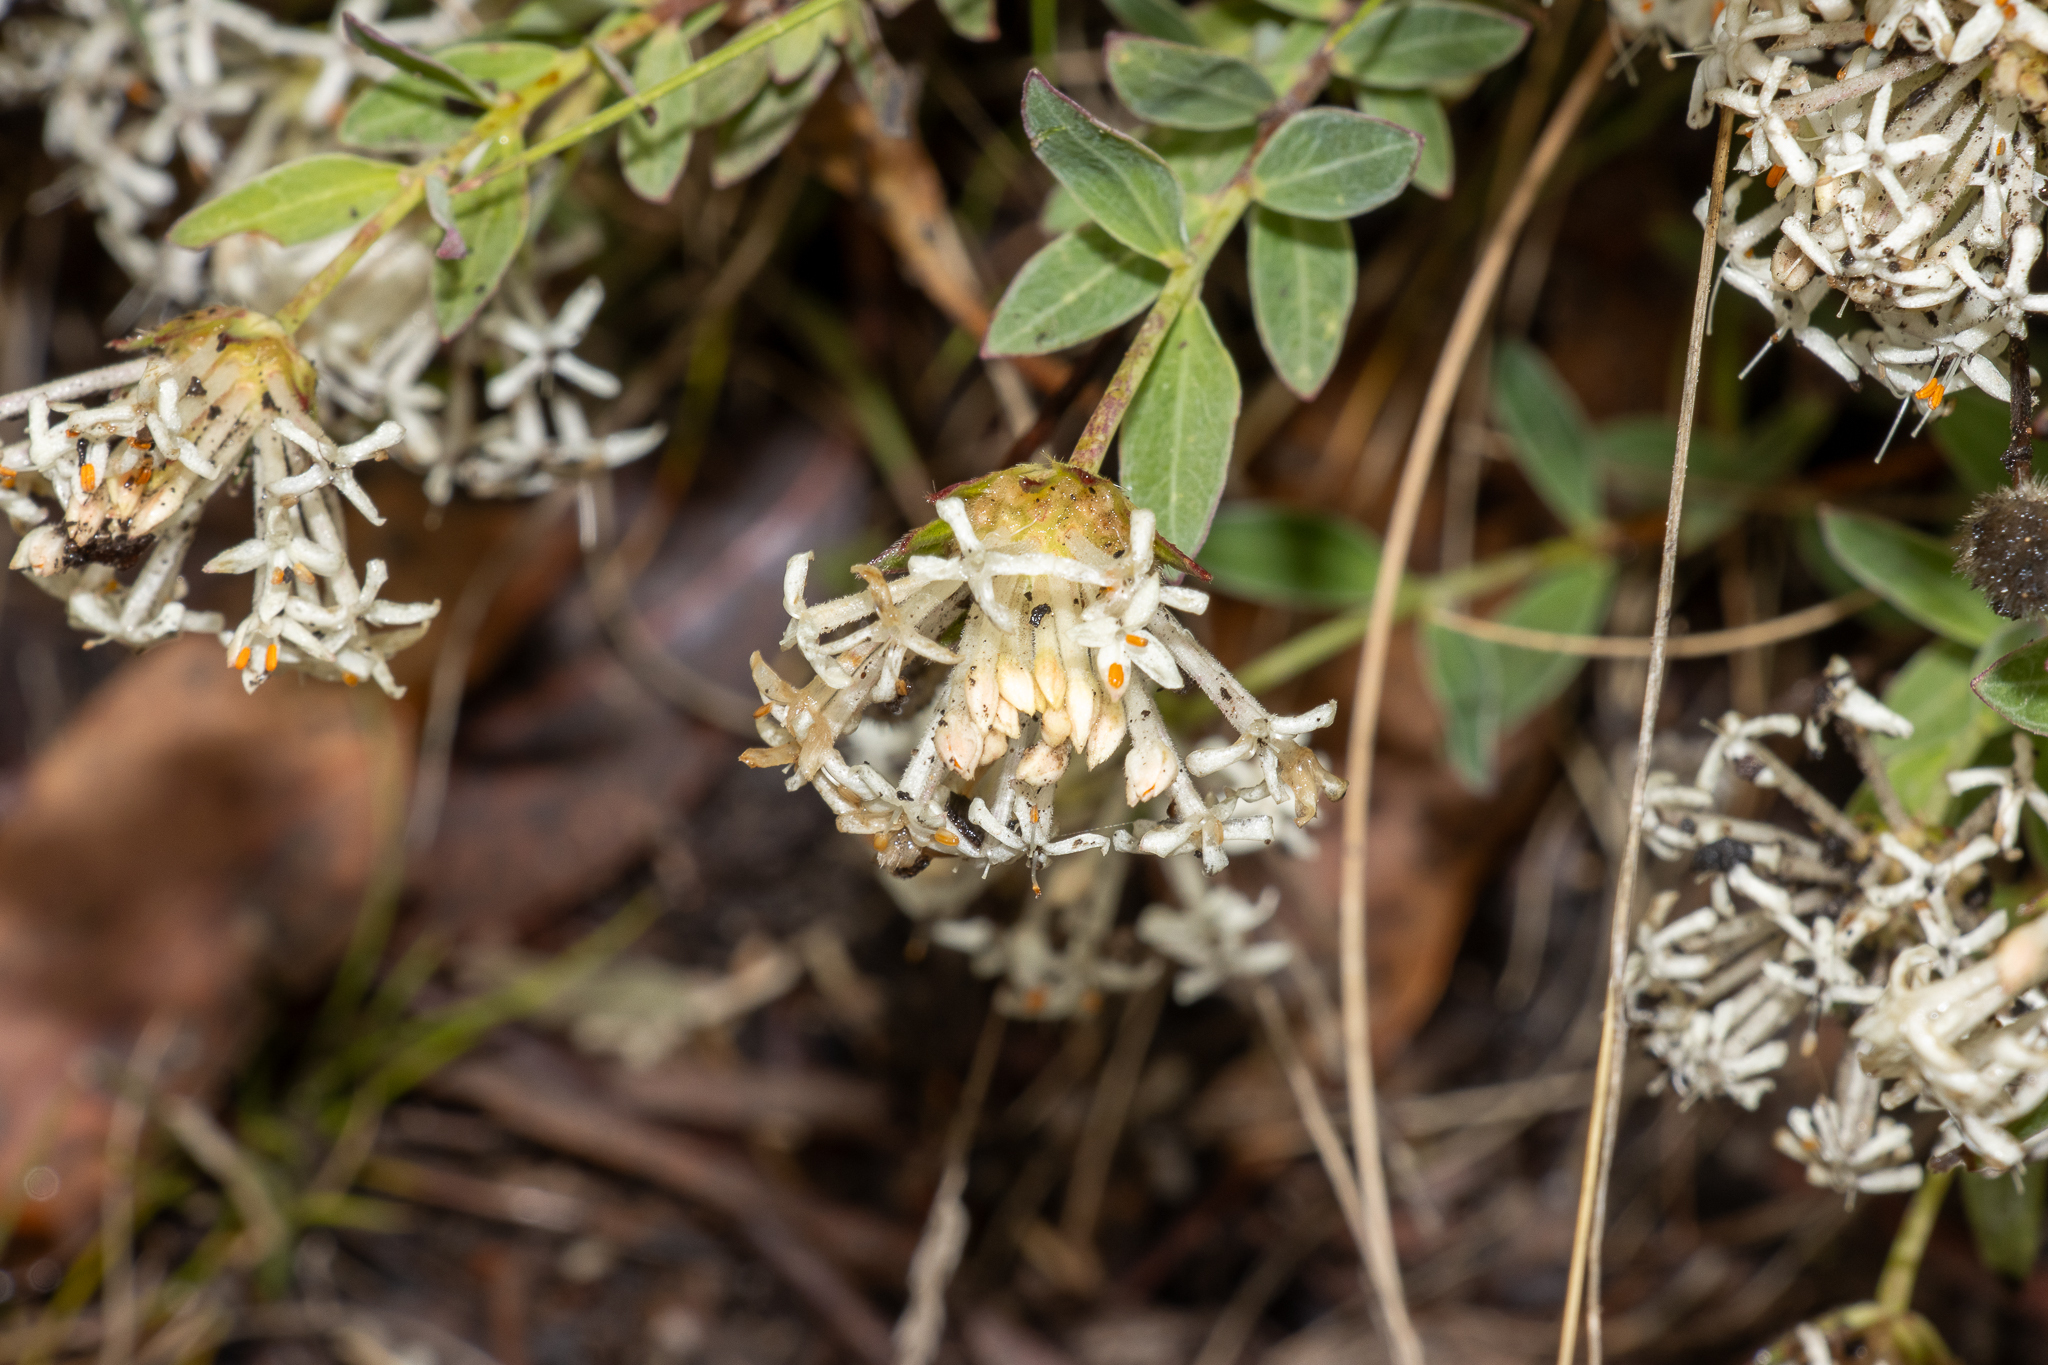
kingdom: Plantae
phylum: Tracheophyta
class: Magnoliopsida
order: Malvales
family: Thymelaeaceae
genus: Pimelea
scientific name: Pimelea treyvaudii
